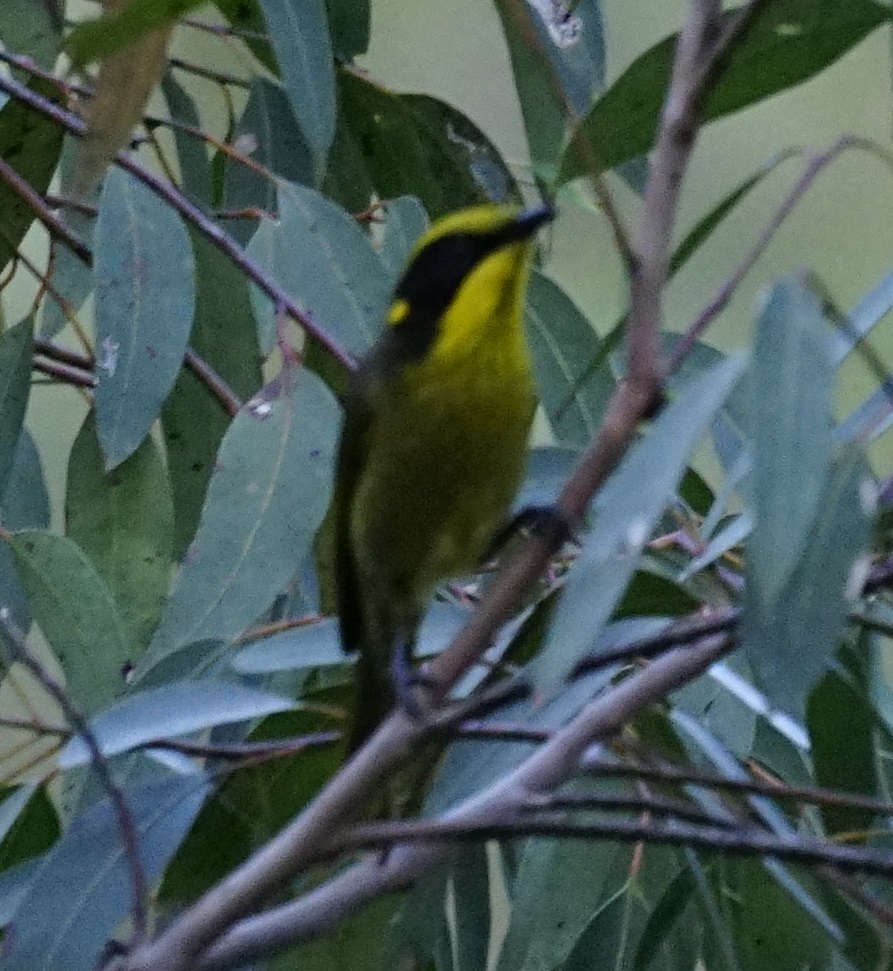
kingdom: Animalia
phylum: Chordata
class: Aves
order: Passeriformes
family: Meliphagidae
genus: Lichenostomus
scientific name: Lichenostomus melanops
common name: Yellow-tufted honeyeater
